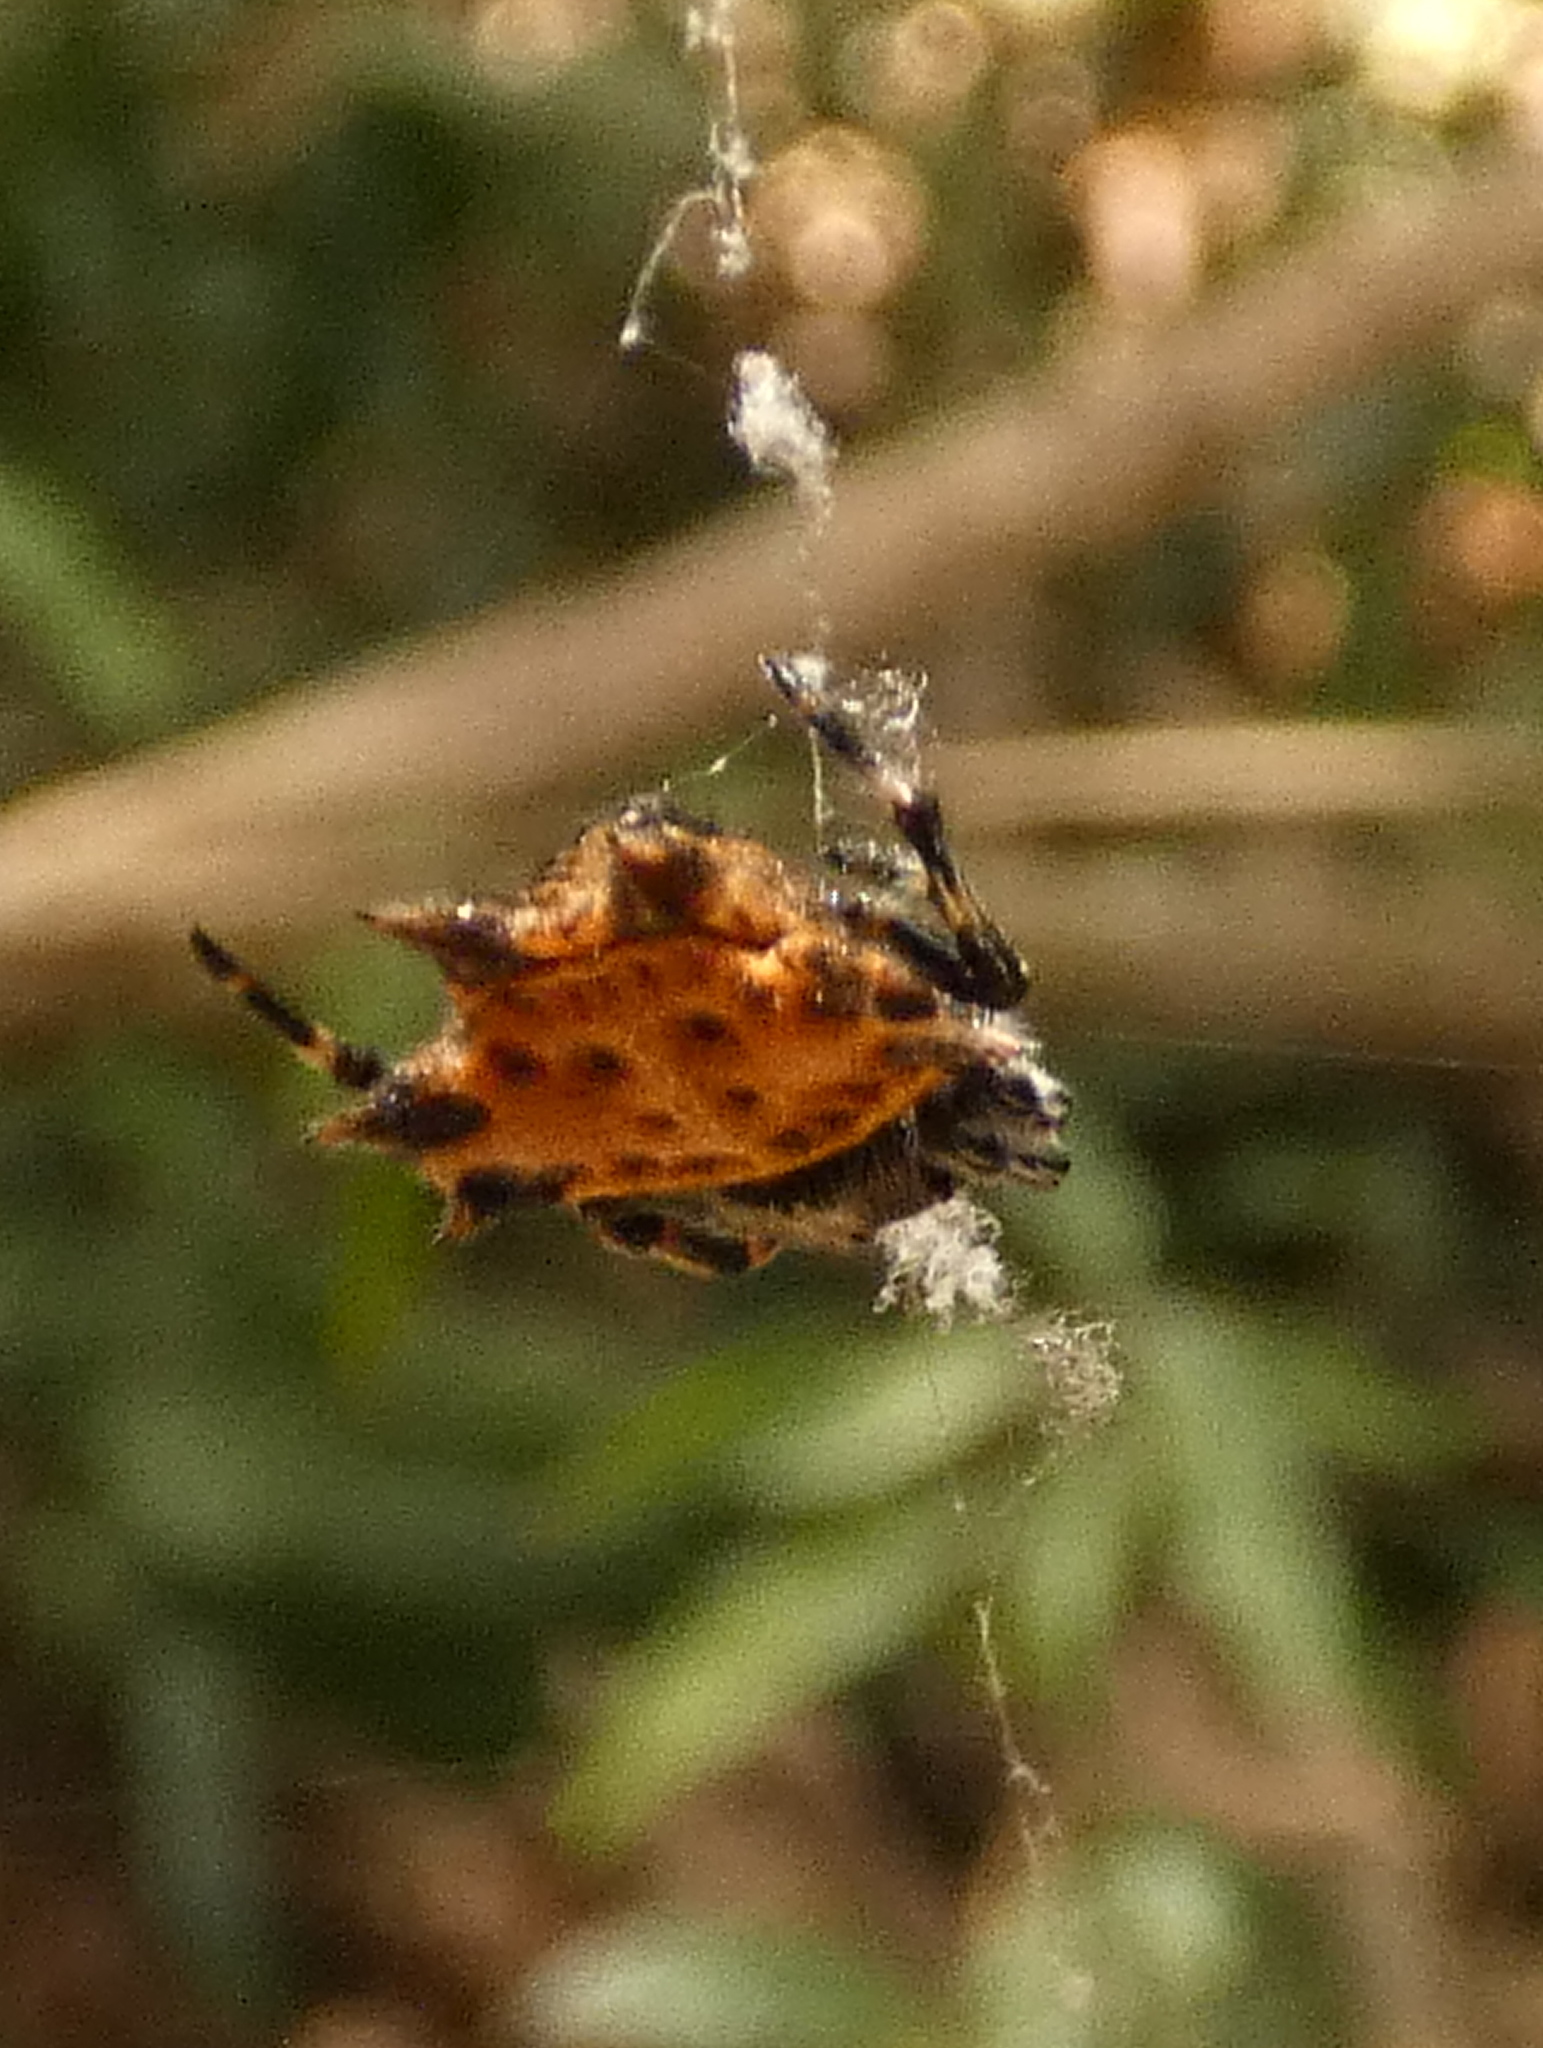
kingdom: Animalia
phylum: Arthropoda
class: Arachnida
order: Araneae
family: Araneidae
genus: Gasteracantha
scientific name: Gasteracantha cancriformis
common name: Orb weavers
